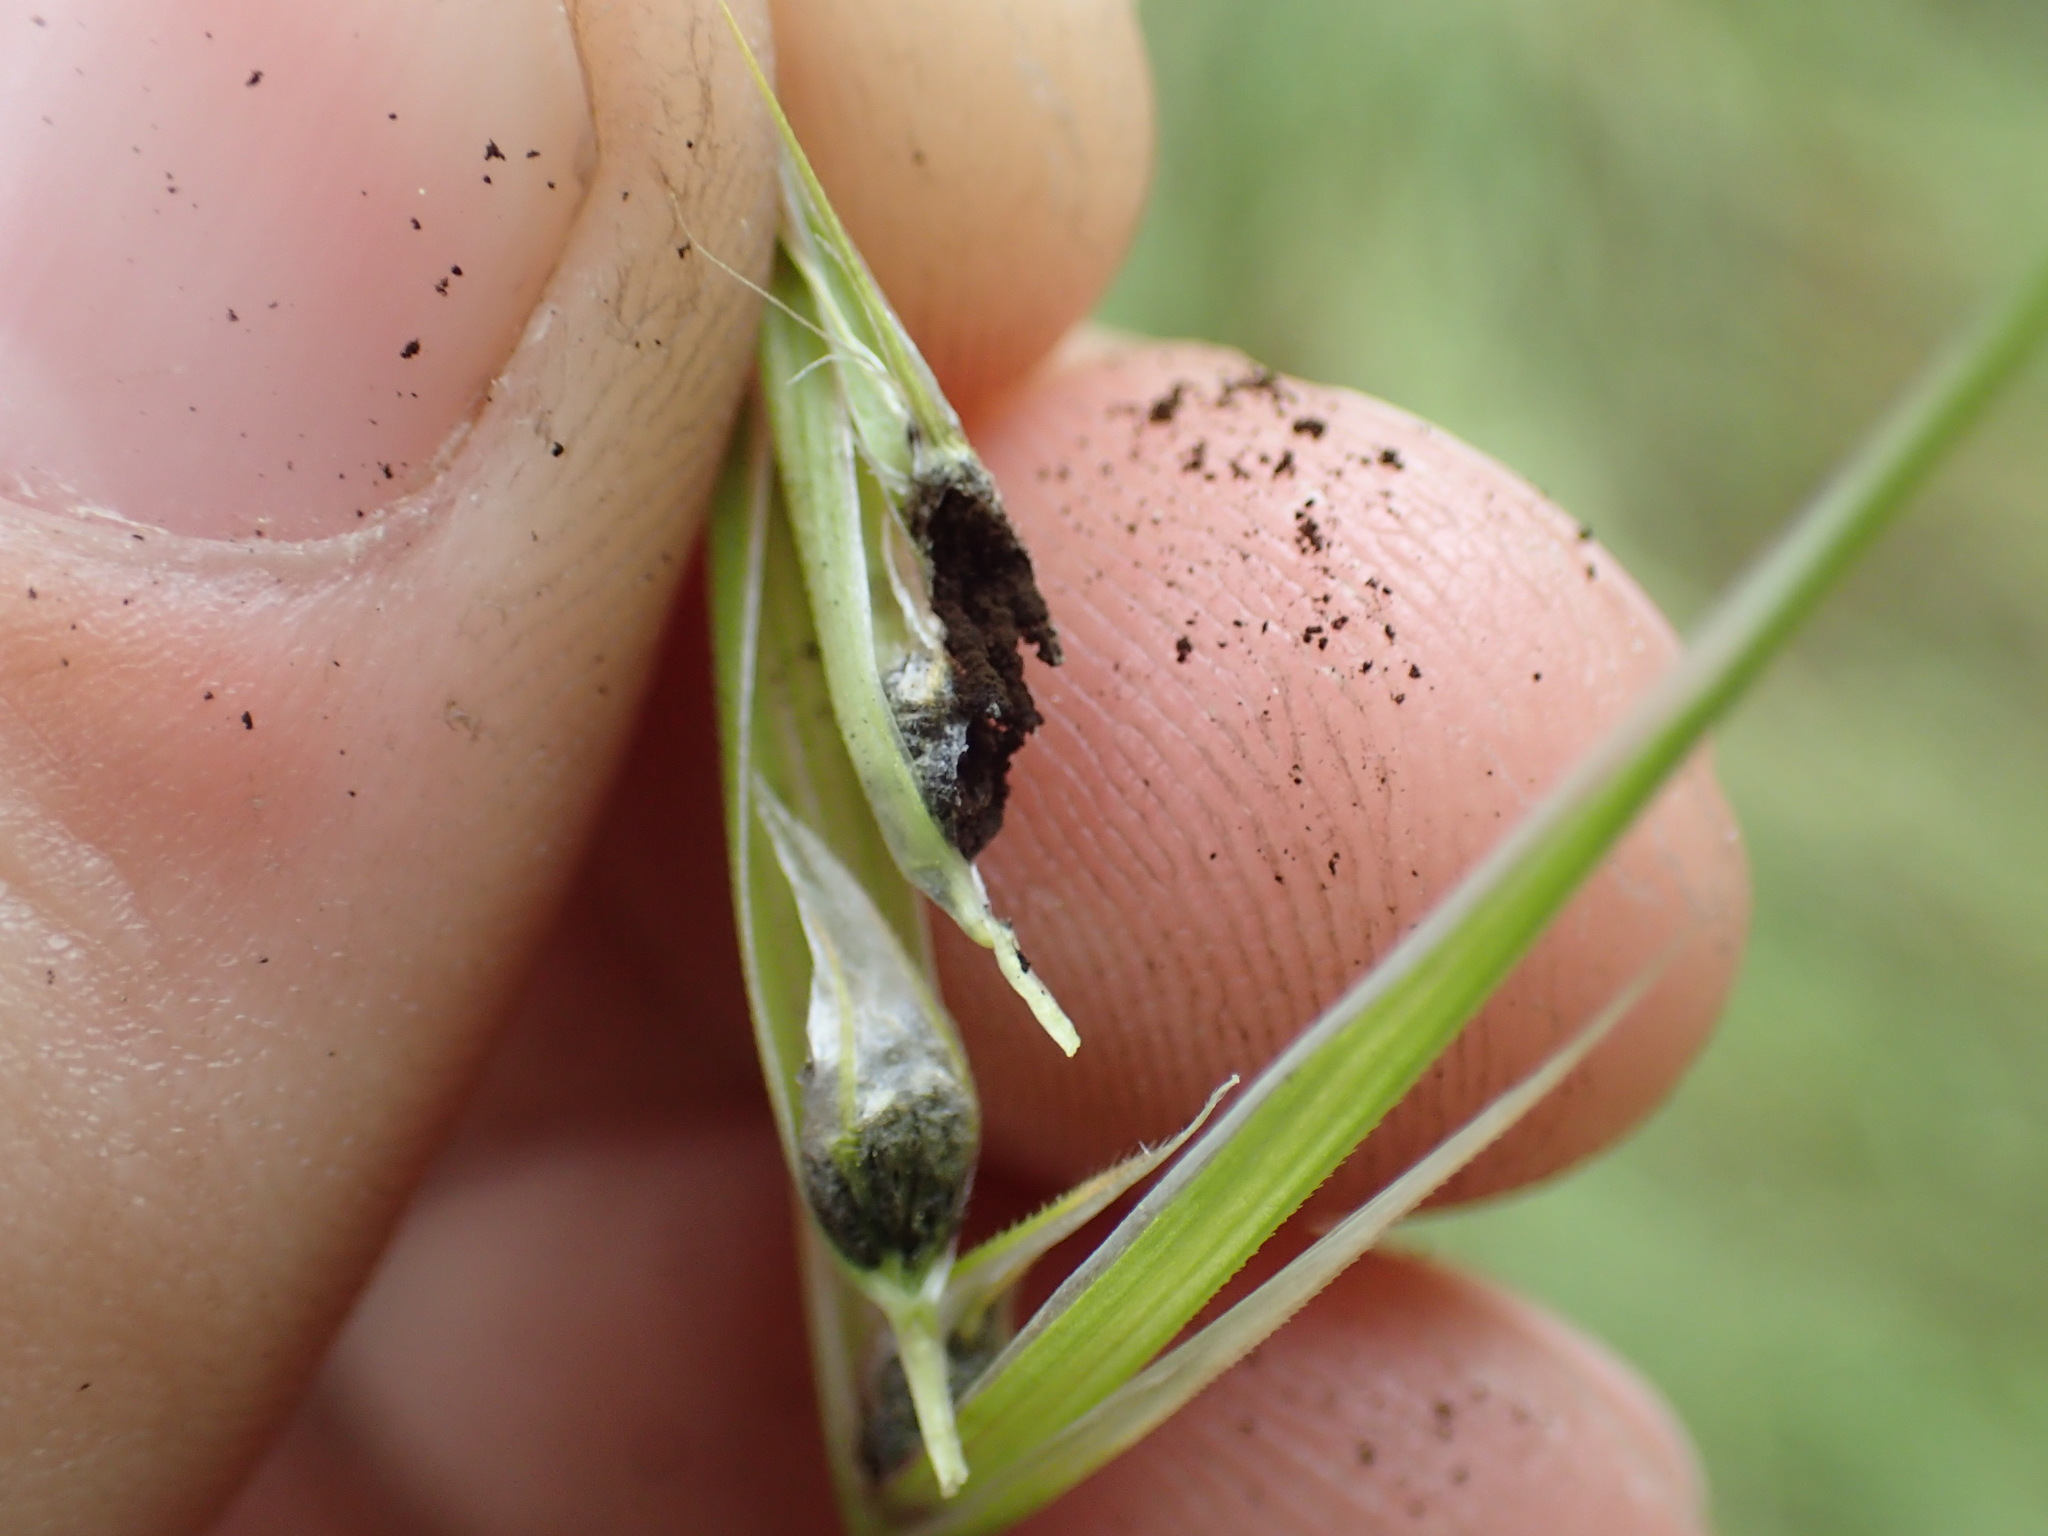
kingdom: Fungi
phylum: Basidiomycota
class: Ustilaginomycetes
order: Ustilaginales
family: Ustilaginaceae
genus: Ustilago
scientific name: Ustilago bullata
